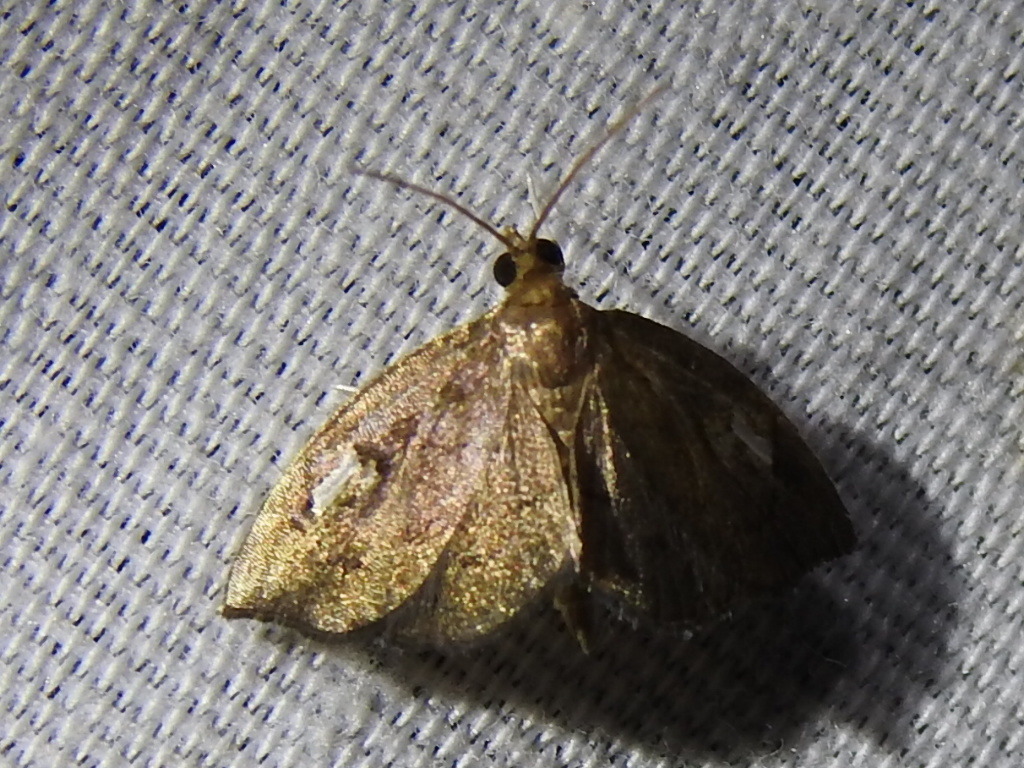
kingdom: Animalia
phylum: Arthropoda
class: Insecta
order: Lepidoptera
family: Crambidae
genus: Perispasta
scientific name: Perispasta caeculalis
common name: Titian peale's moth
